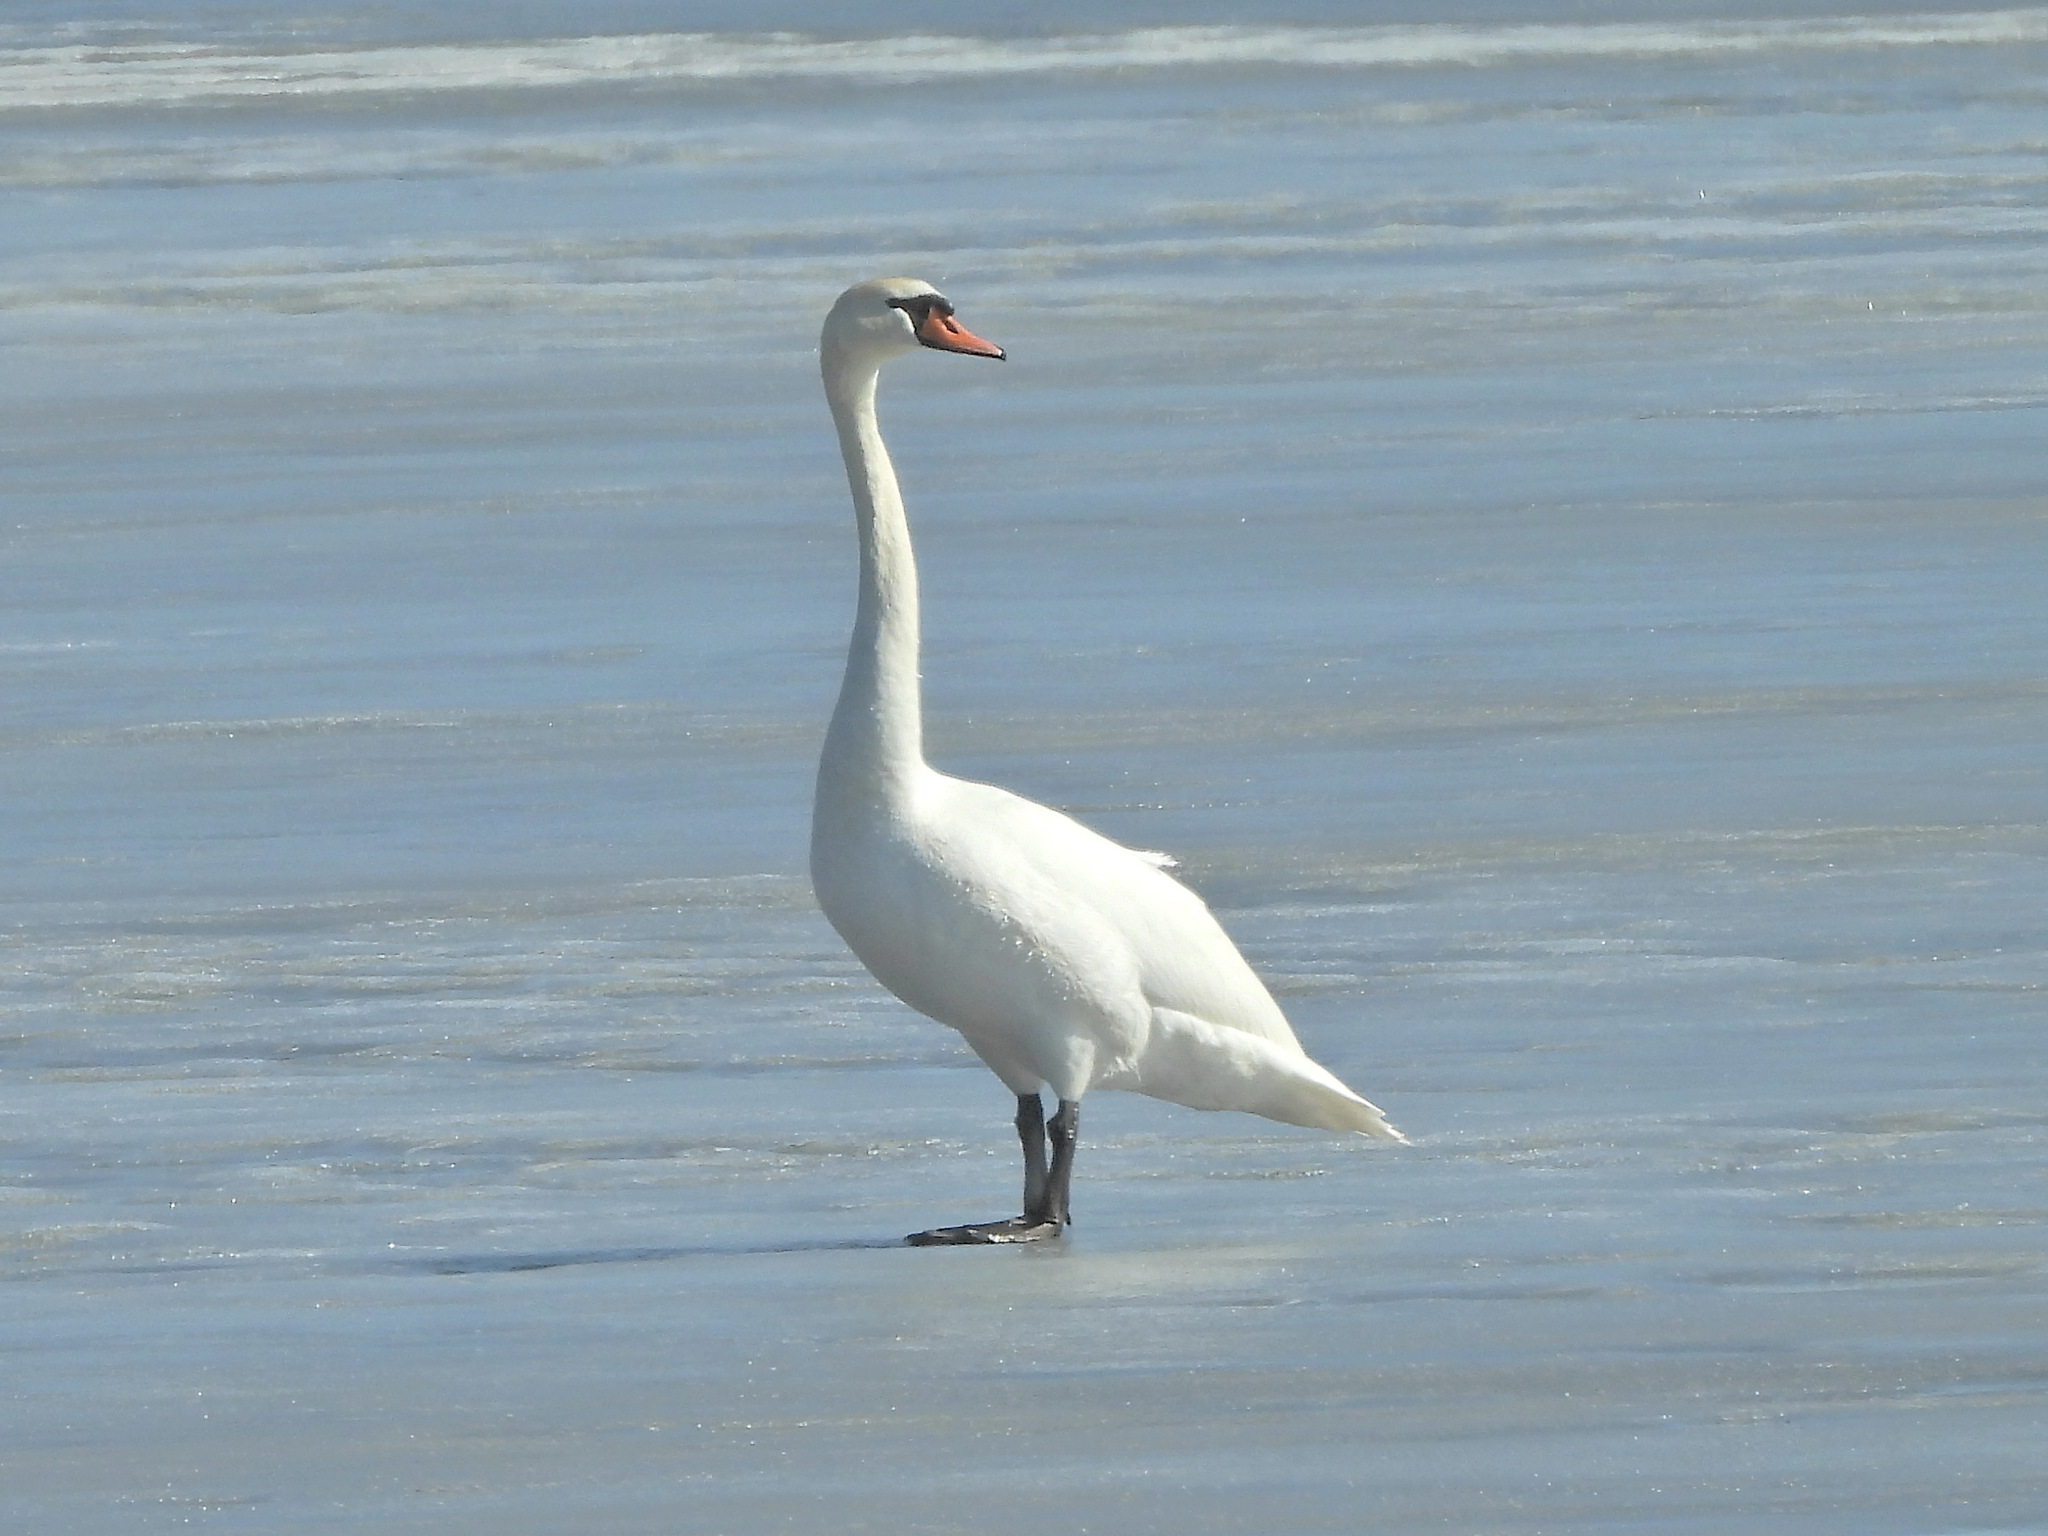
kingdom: Animalia
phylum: Chordata
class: Aves
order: Anseriformes
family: Anatidae
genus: Cygnus
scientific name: Cygnus olor
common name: Mute swan
